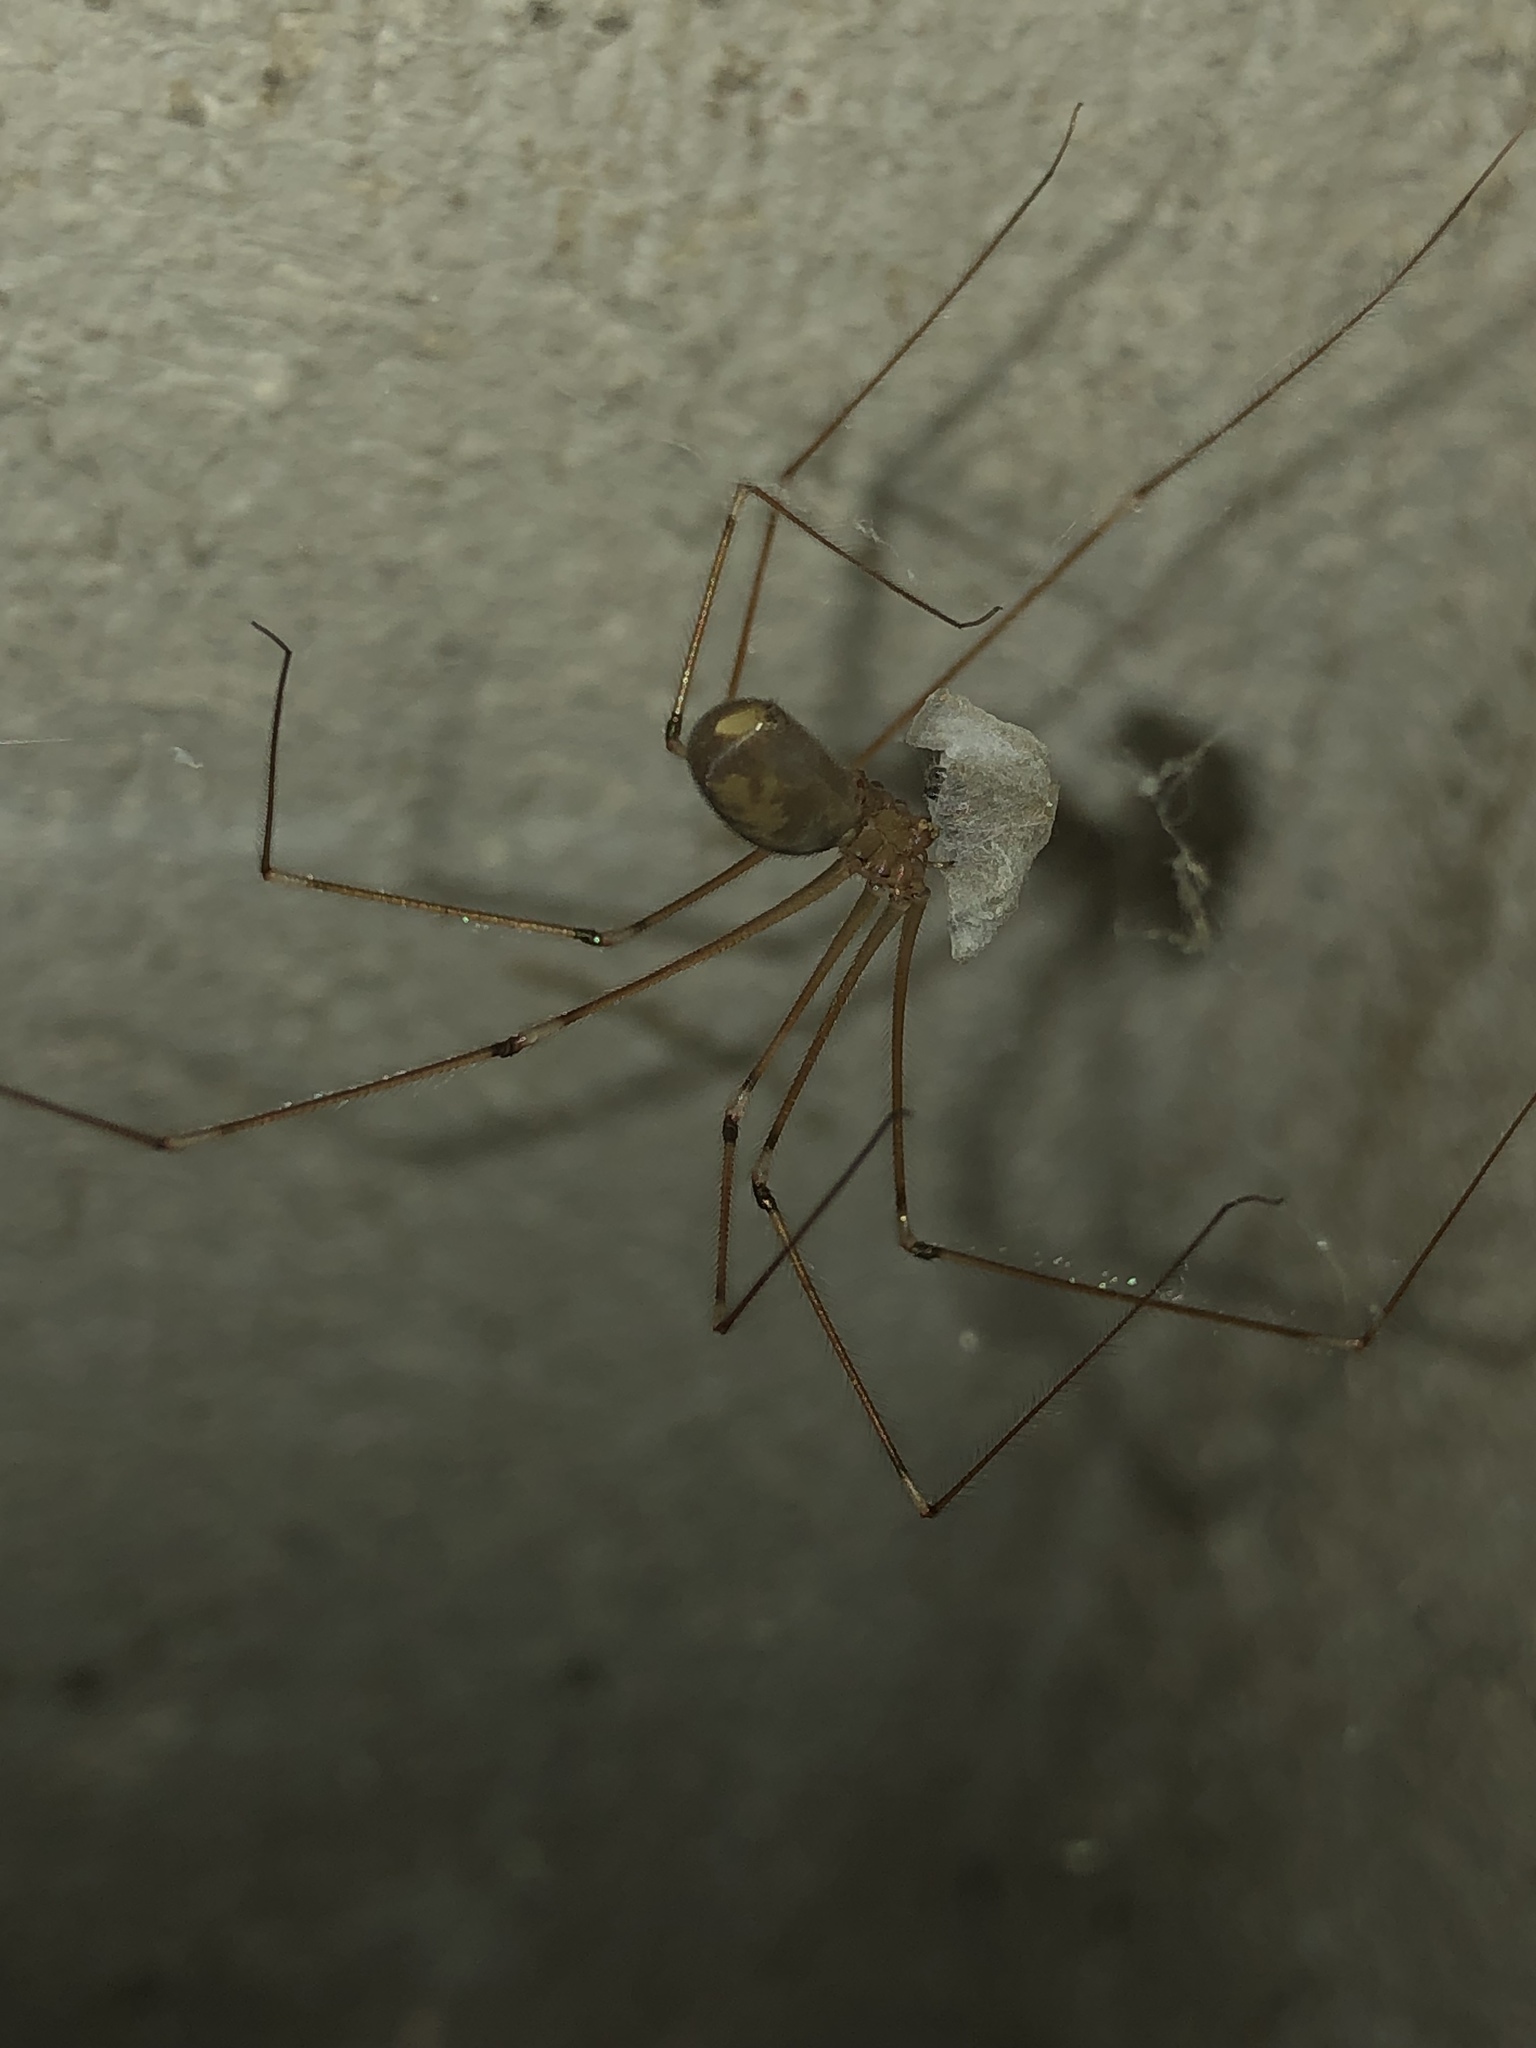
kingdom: Animalia
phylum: Arthropoda
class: Arachnida
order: Araneae
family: Pholcidae
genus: Pholcus
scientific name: Pholcus phalangioides
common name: Longbodied cellar spider
